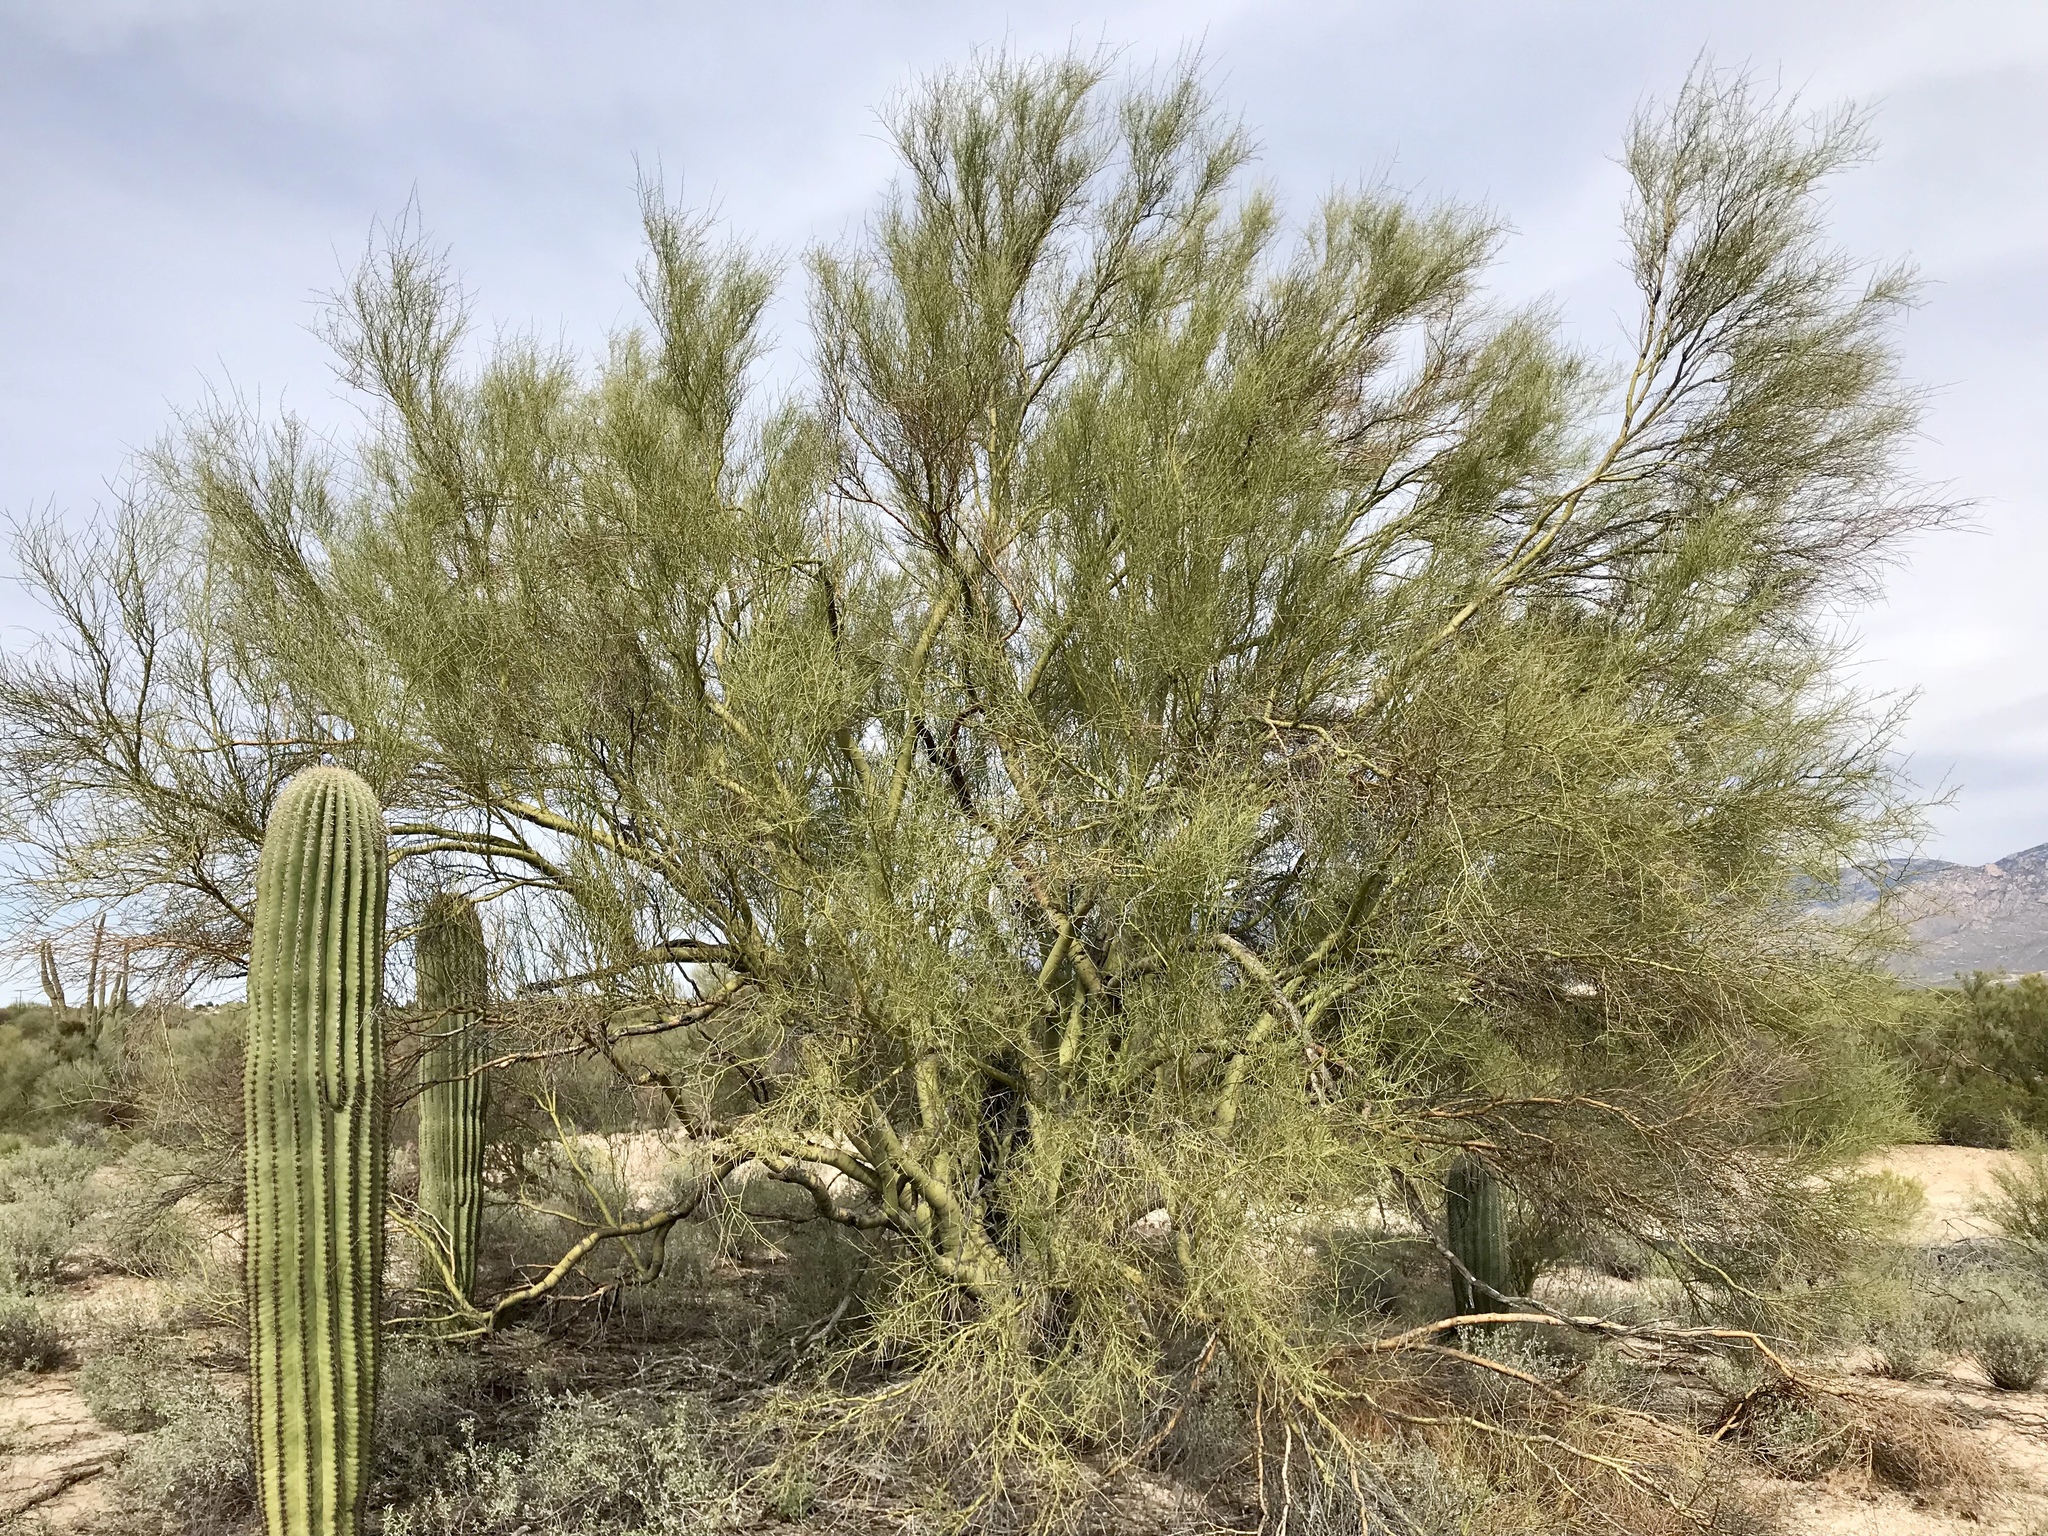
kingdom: Plantae
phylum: Tracheophyta
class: Magnoliopsida
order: Fabales
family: Fabaceae
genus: Parkinsonia
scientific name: Parkinsonia microphylla
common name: Yellow paloverde
